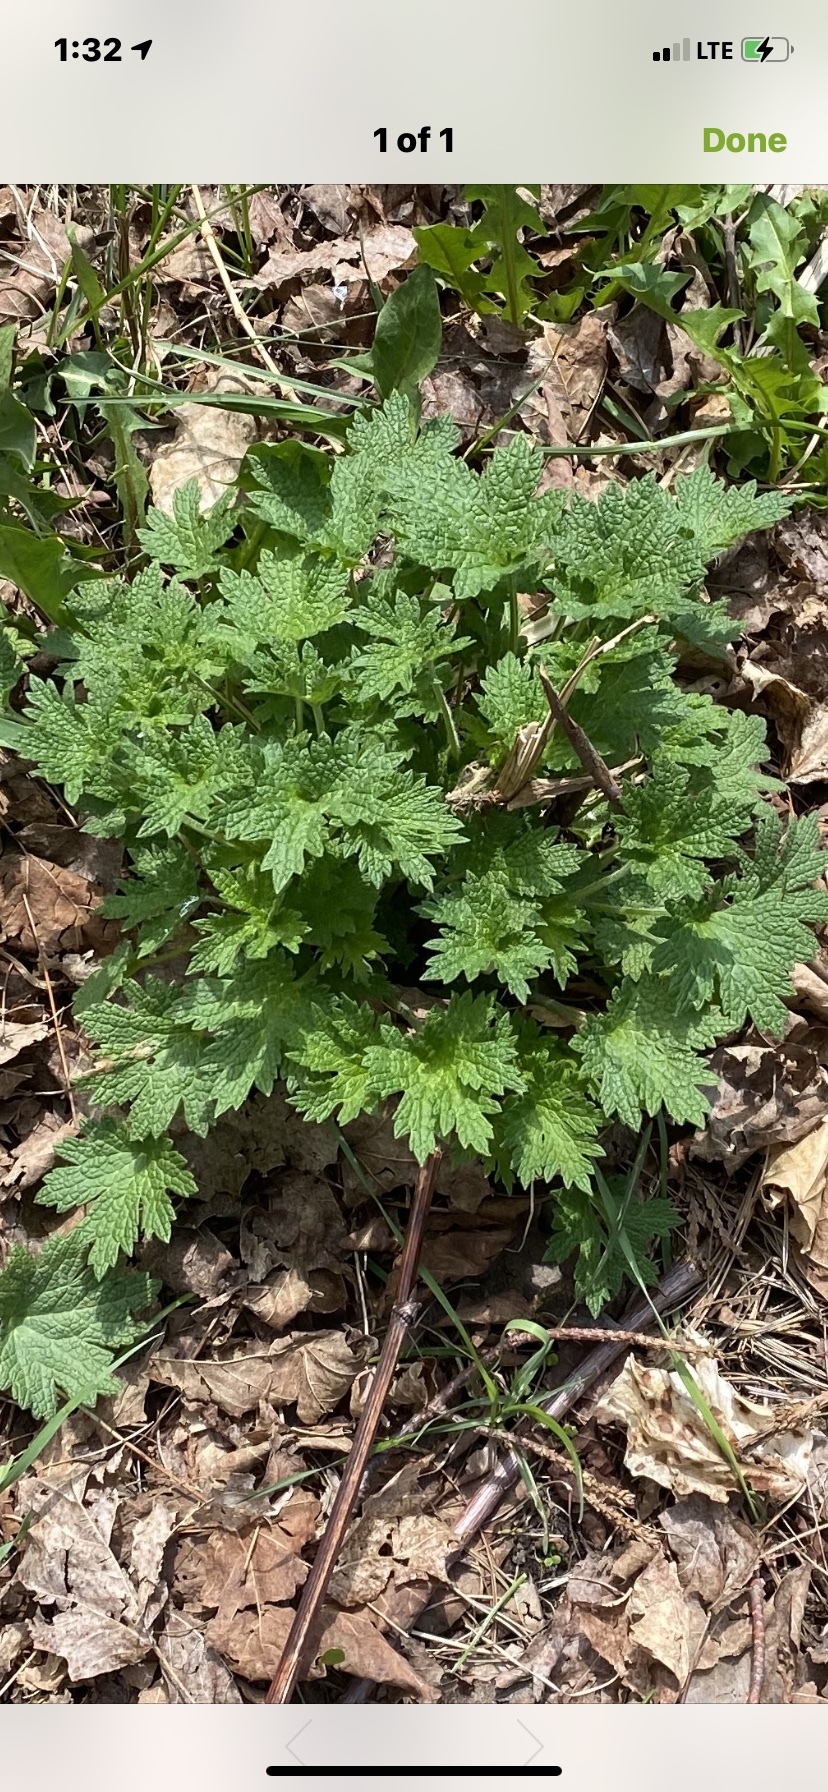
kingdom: Plantae
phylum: Tracheophyta
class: Magnoliopsida
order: Lamiales
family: Lamiaceae
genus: Leonurus
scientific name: Leonurus cardiaca
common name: Motherwort
